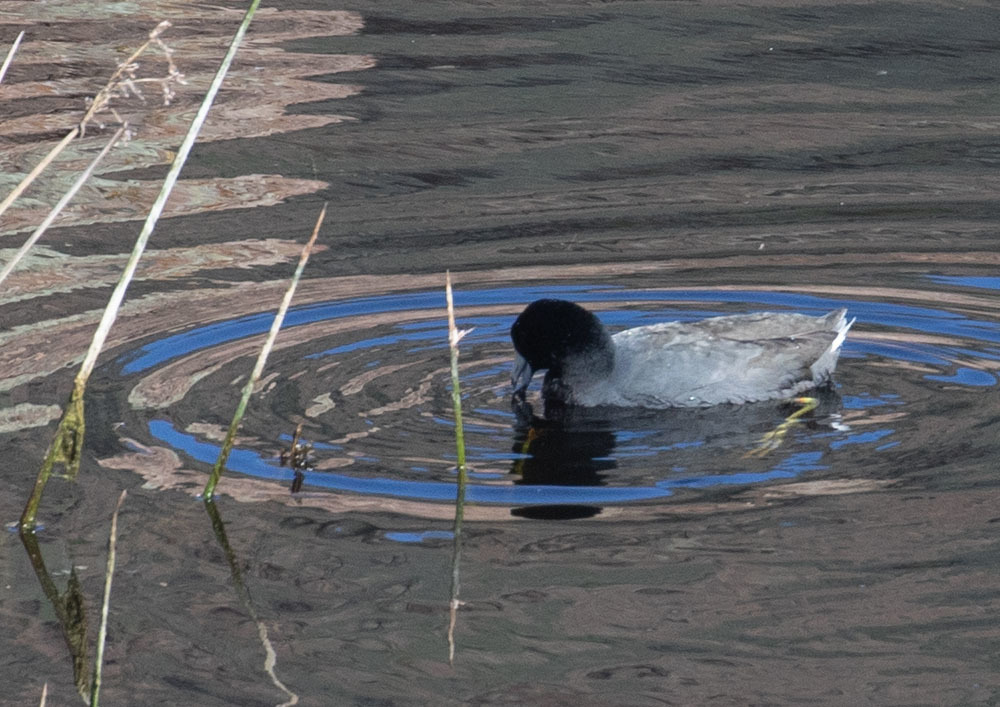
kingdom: Animalia
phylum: Chordata
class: Aves
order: Gruiformes
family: Rallidae
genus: Fulica
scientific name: Fulica americana
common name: American coot
